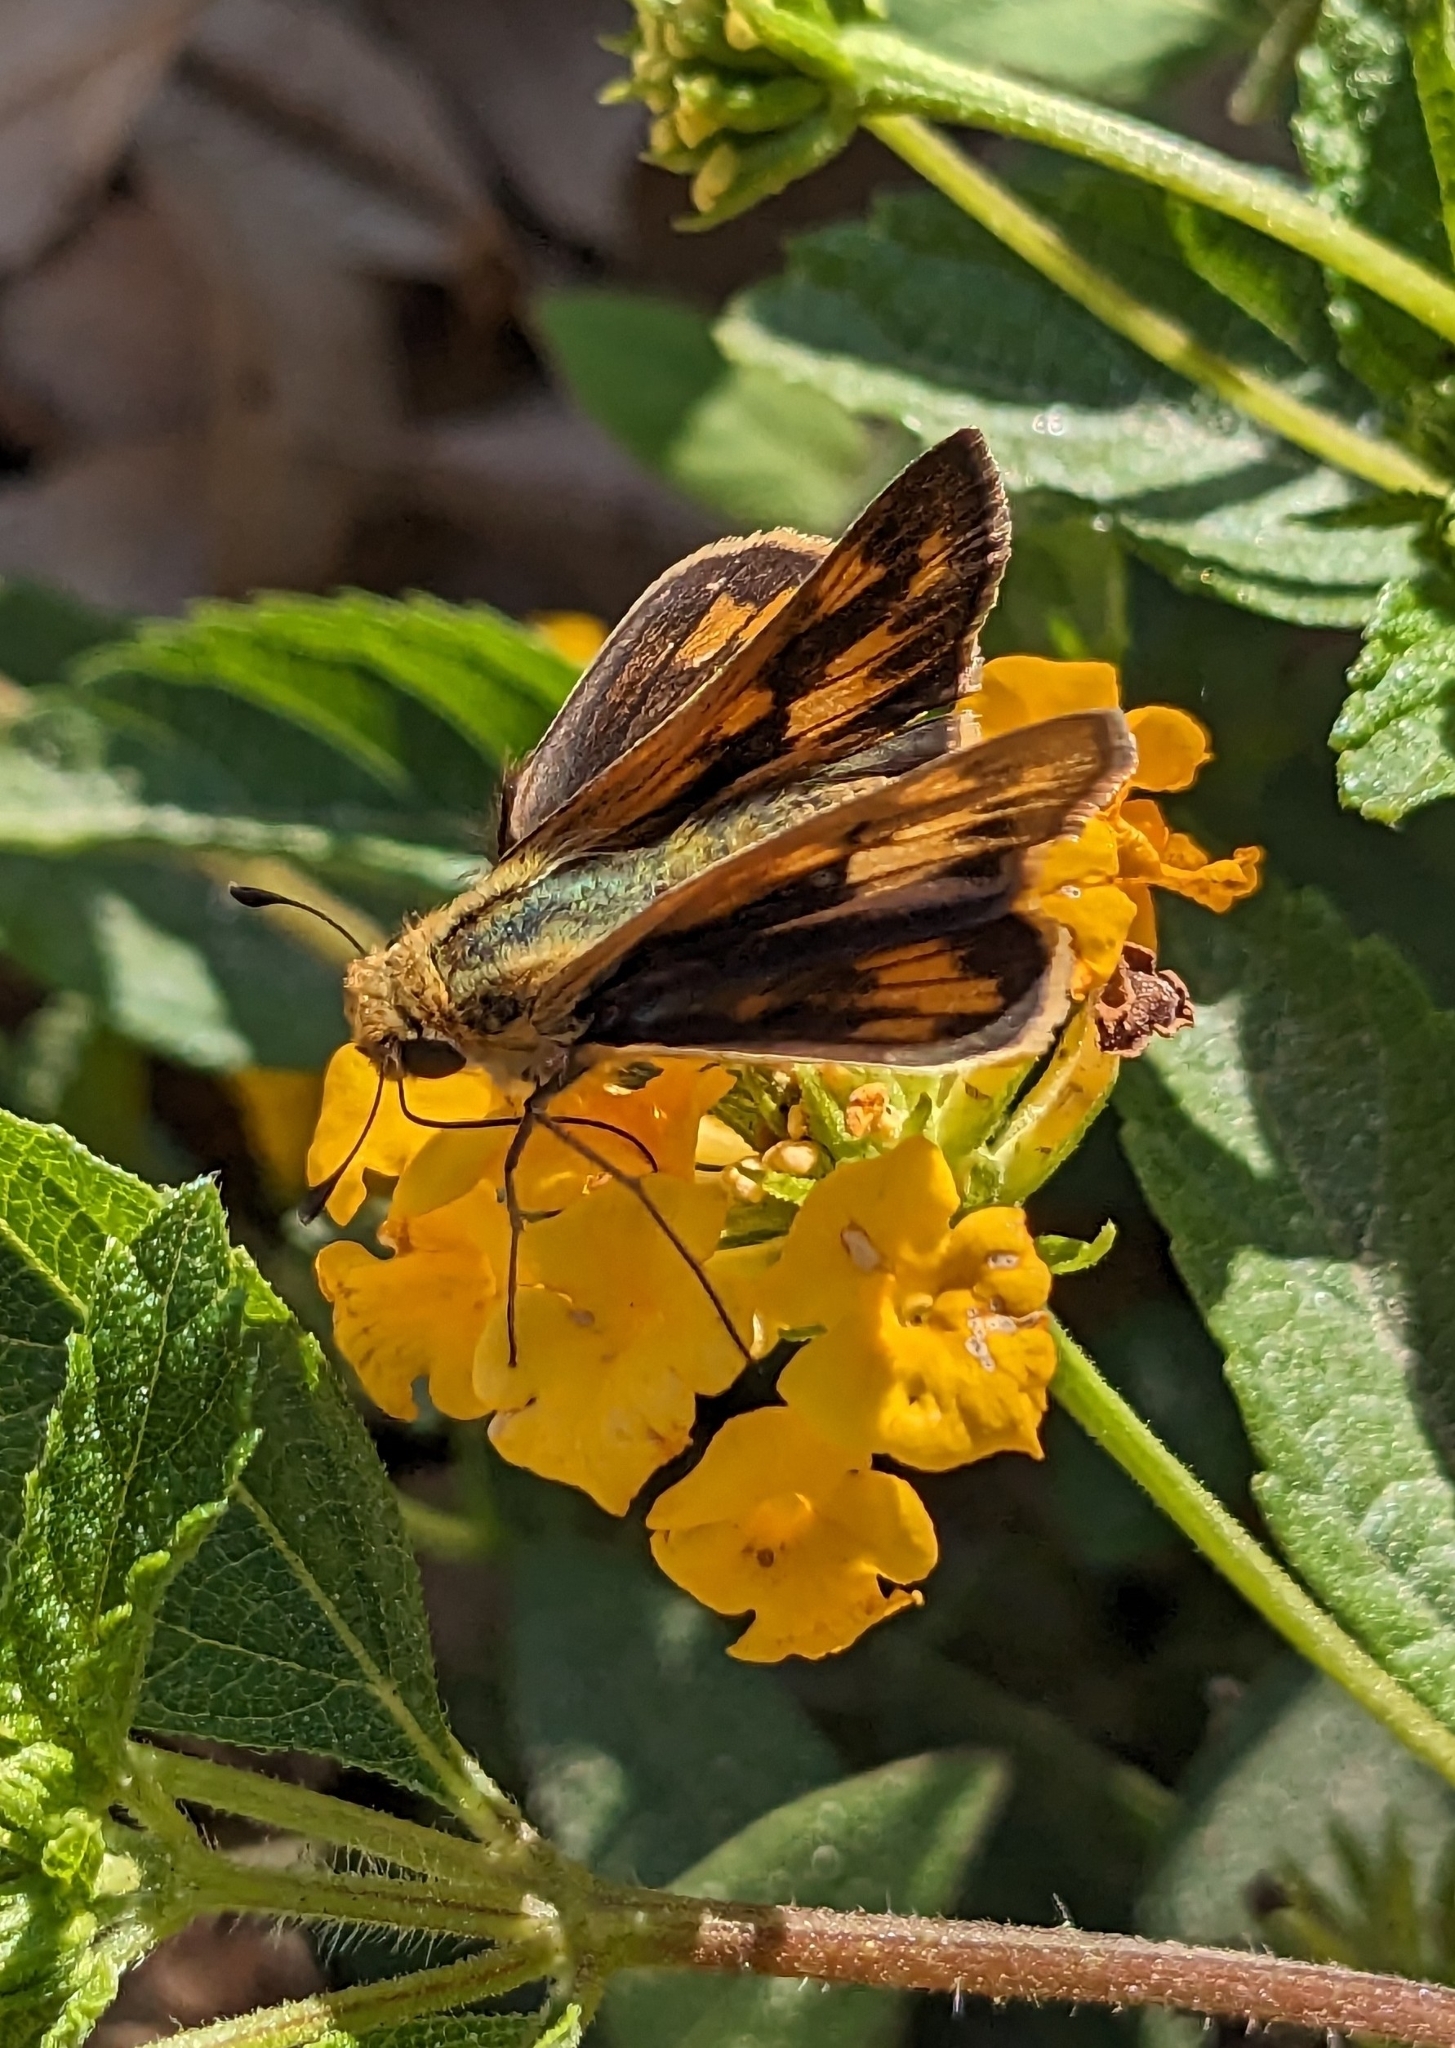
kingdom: Animalia
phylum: Arthropoda
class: Insecta
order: Lepidoptera
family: Hesperiidae
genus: Hylephila
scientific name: Hylephila phyleus
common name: Fiery skipper
